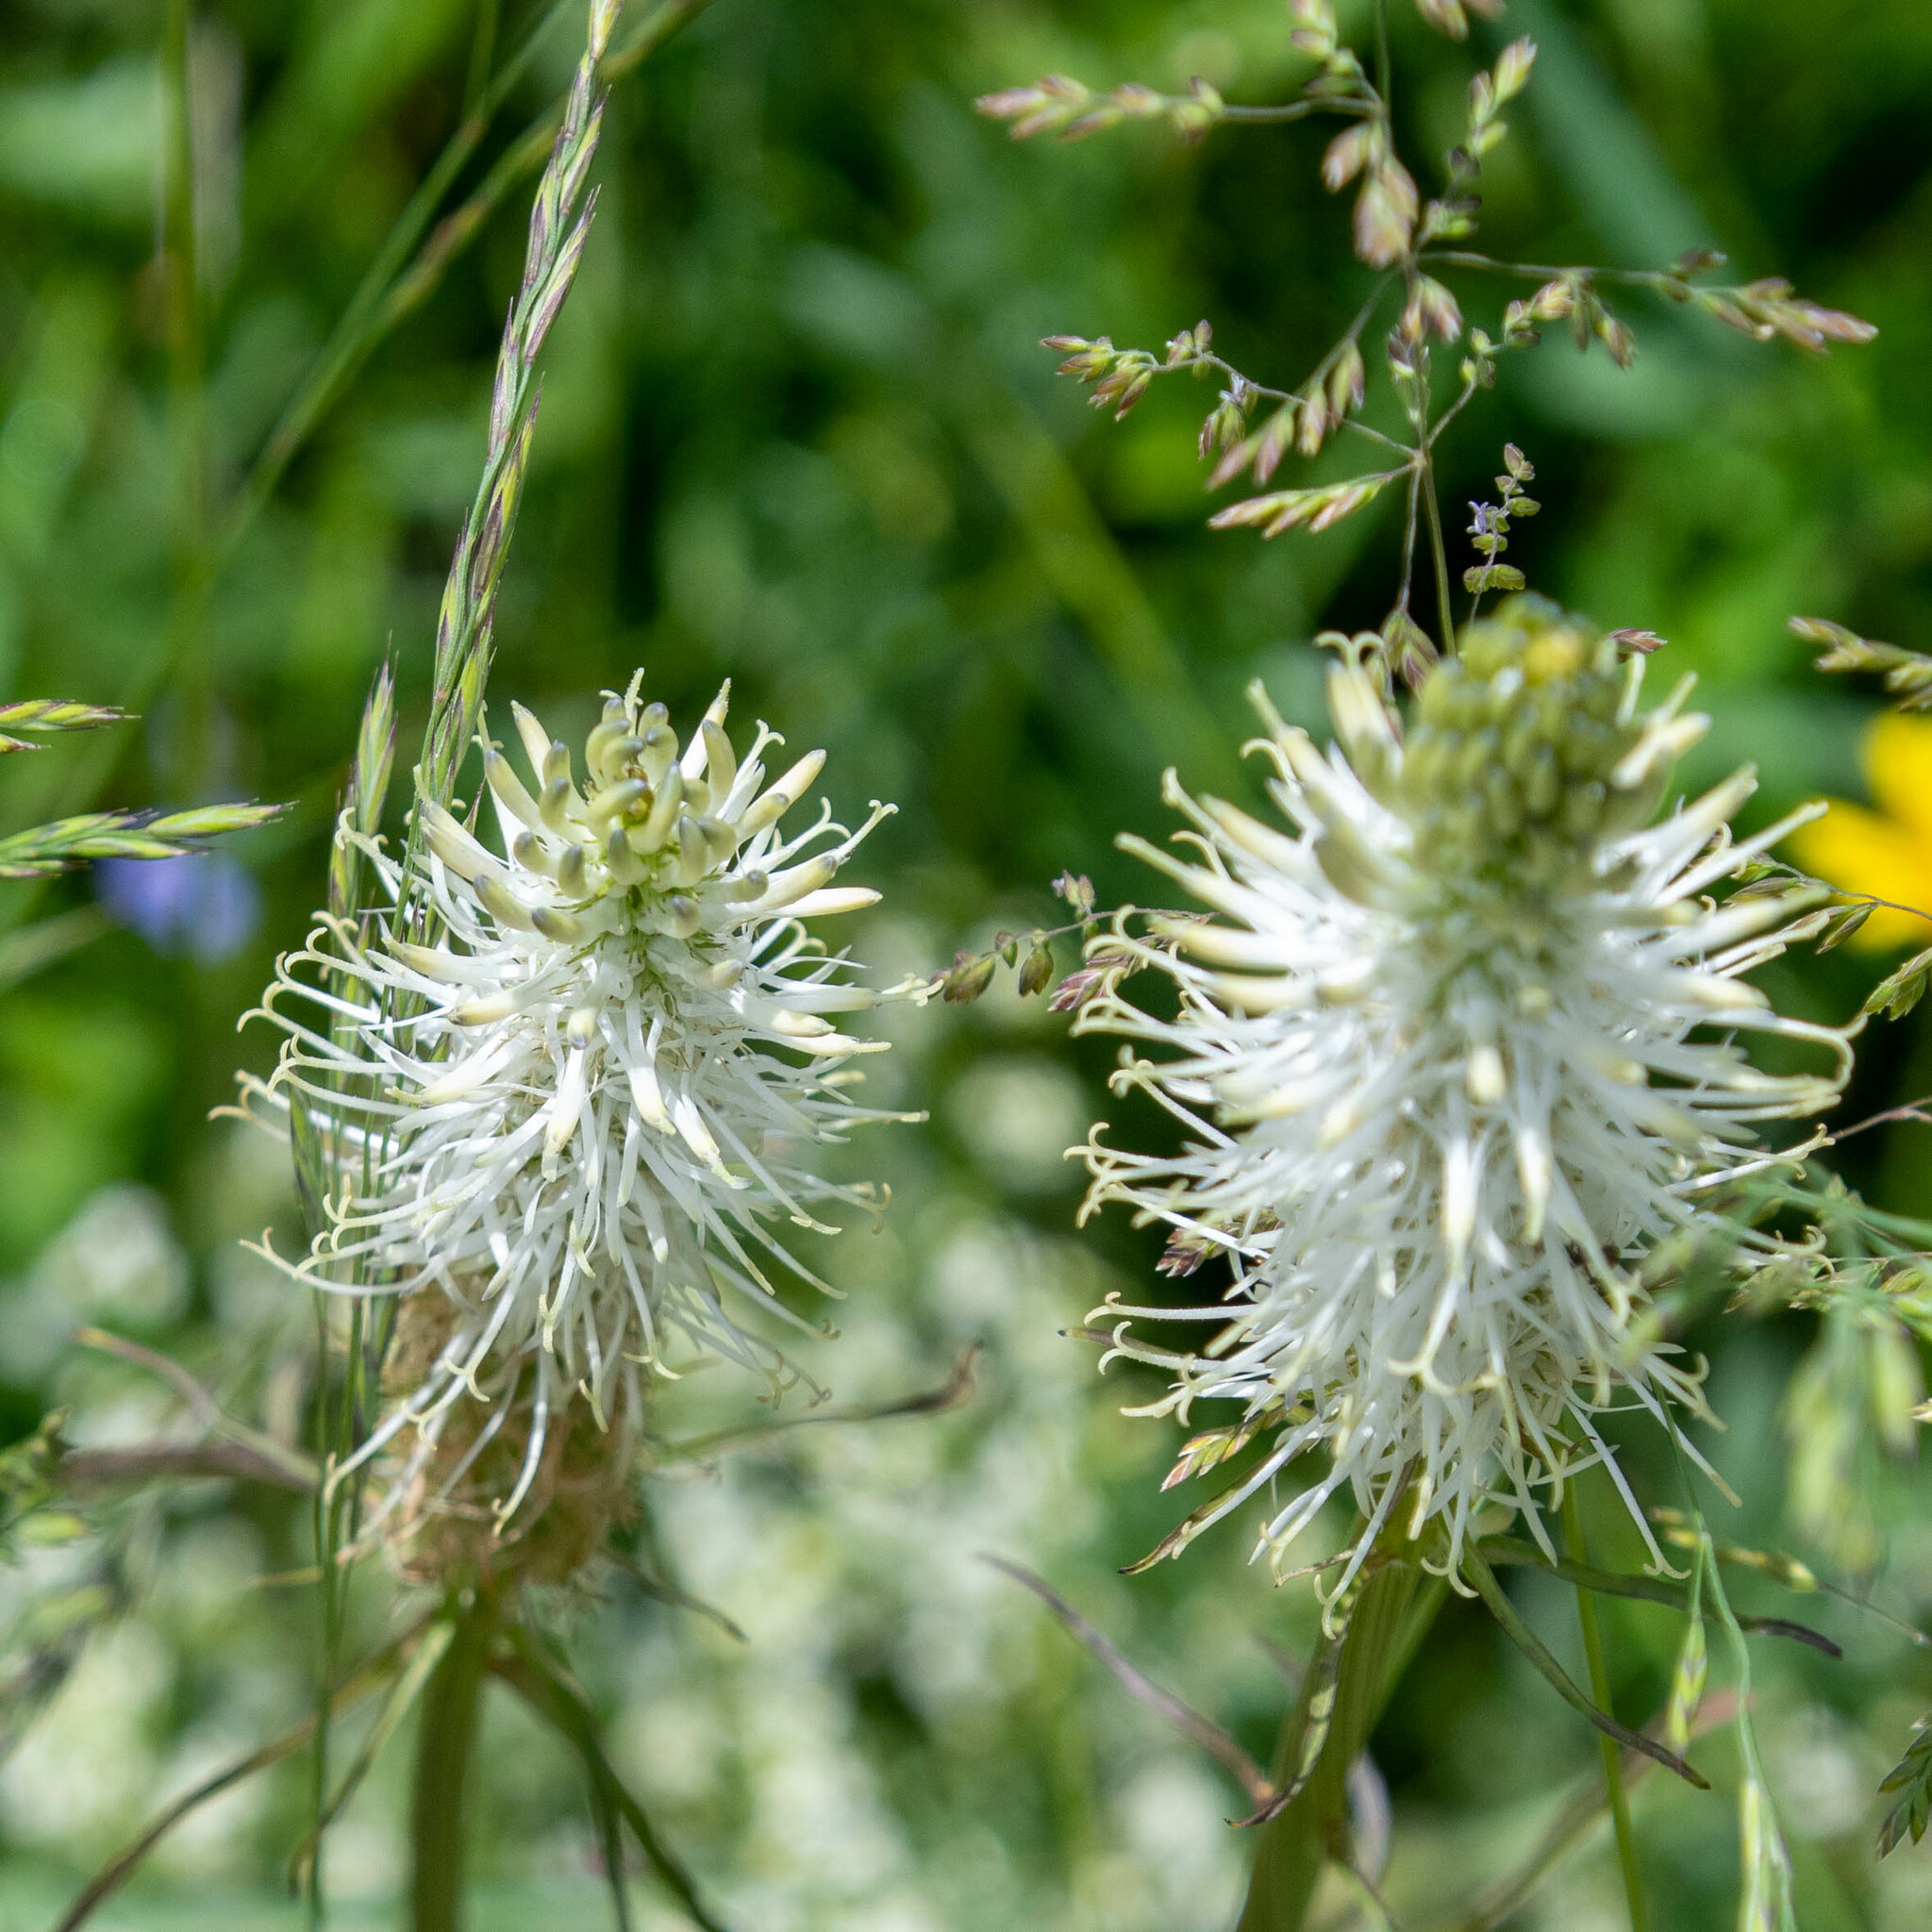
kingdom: Plantae
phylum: Tracheophyta
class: Magnoliopsida
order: Lamiales
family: Plantaginaceae
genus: Plantago
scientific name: Plantago media
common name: Hoary plantain
